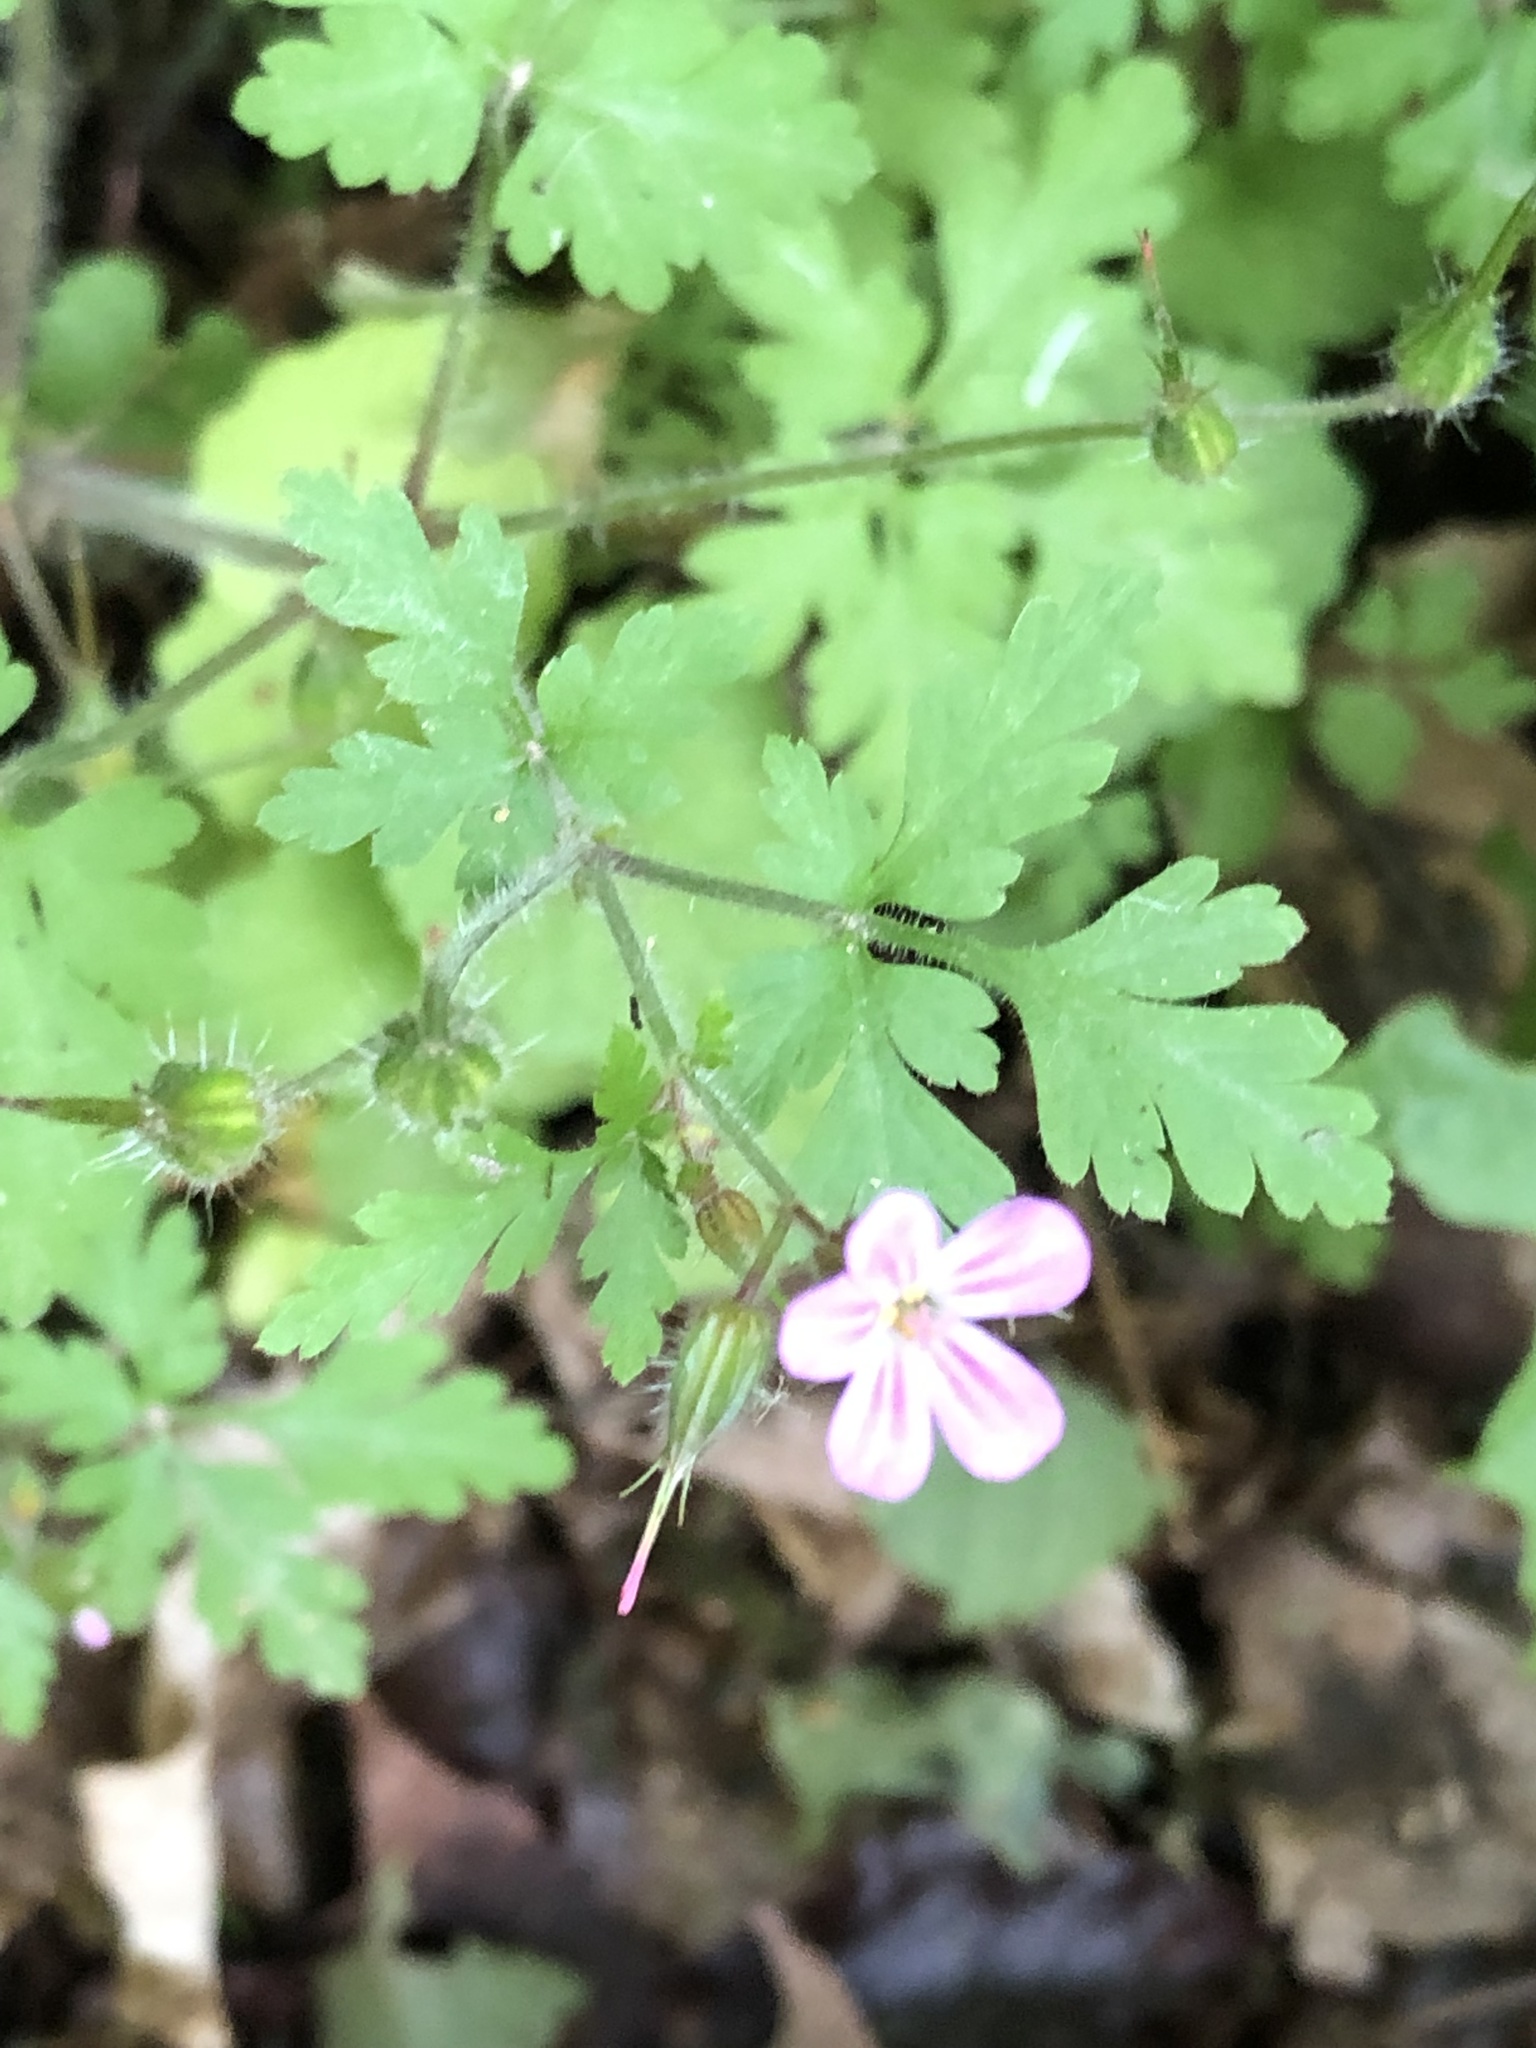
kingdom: Plantae
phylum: Tracheophyta
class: Magnoliopsida
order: Geraniales
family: Geraniaceae
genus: Geranium
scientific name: Geranium robertianum
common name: Herb-robert
